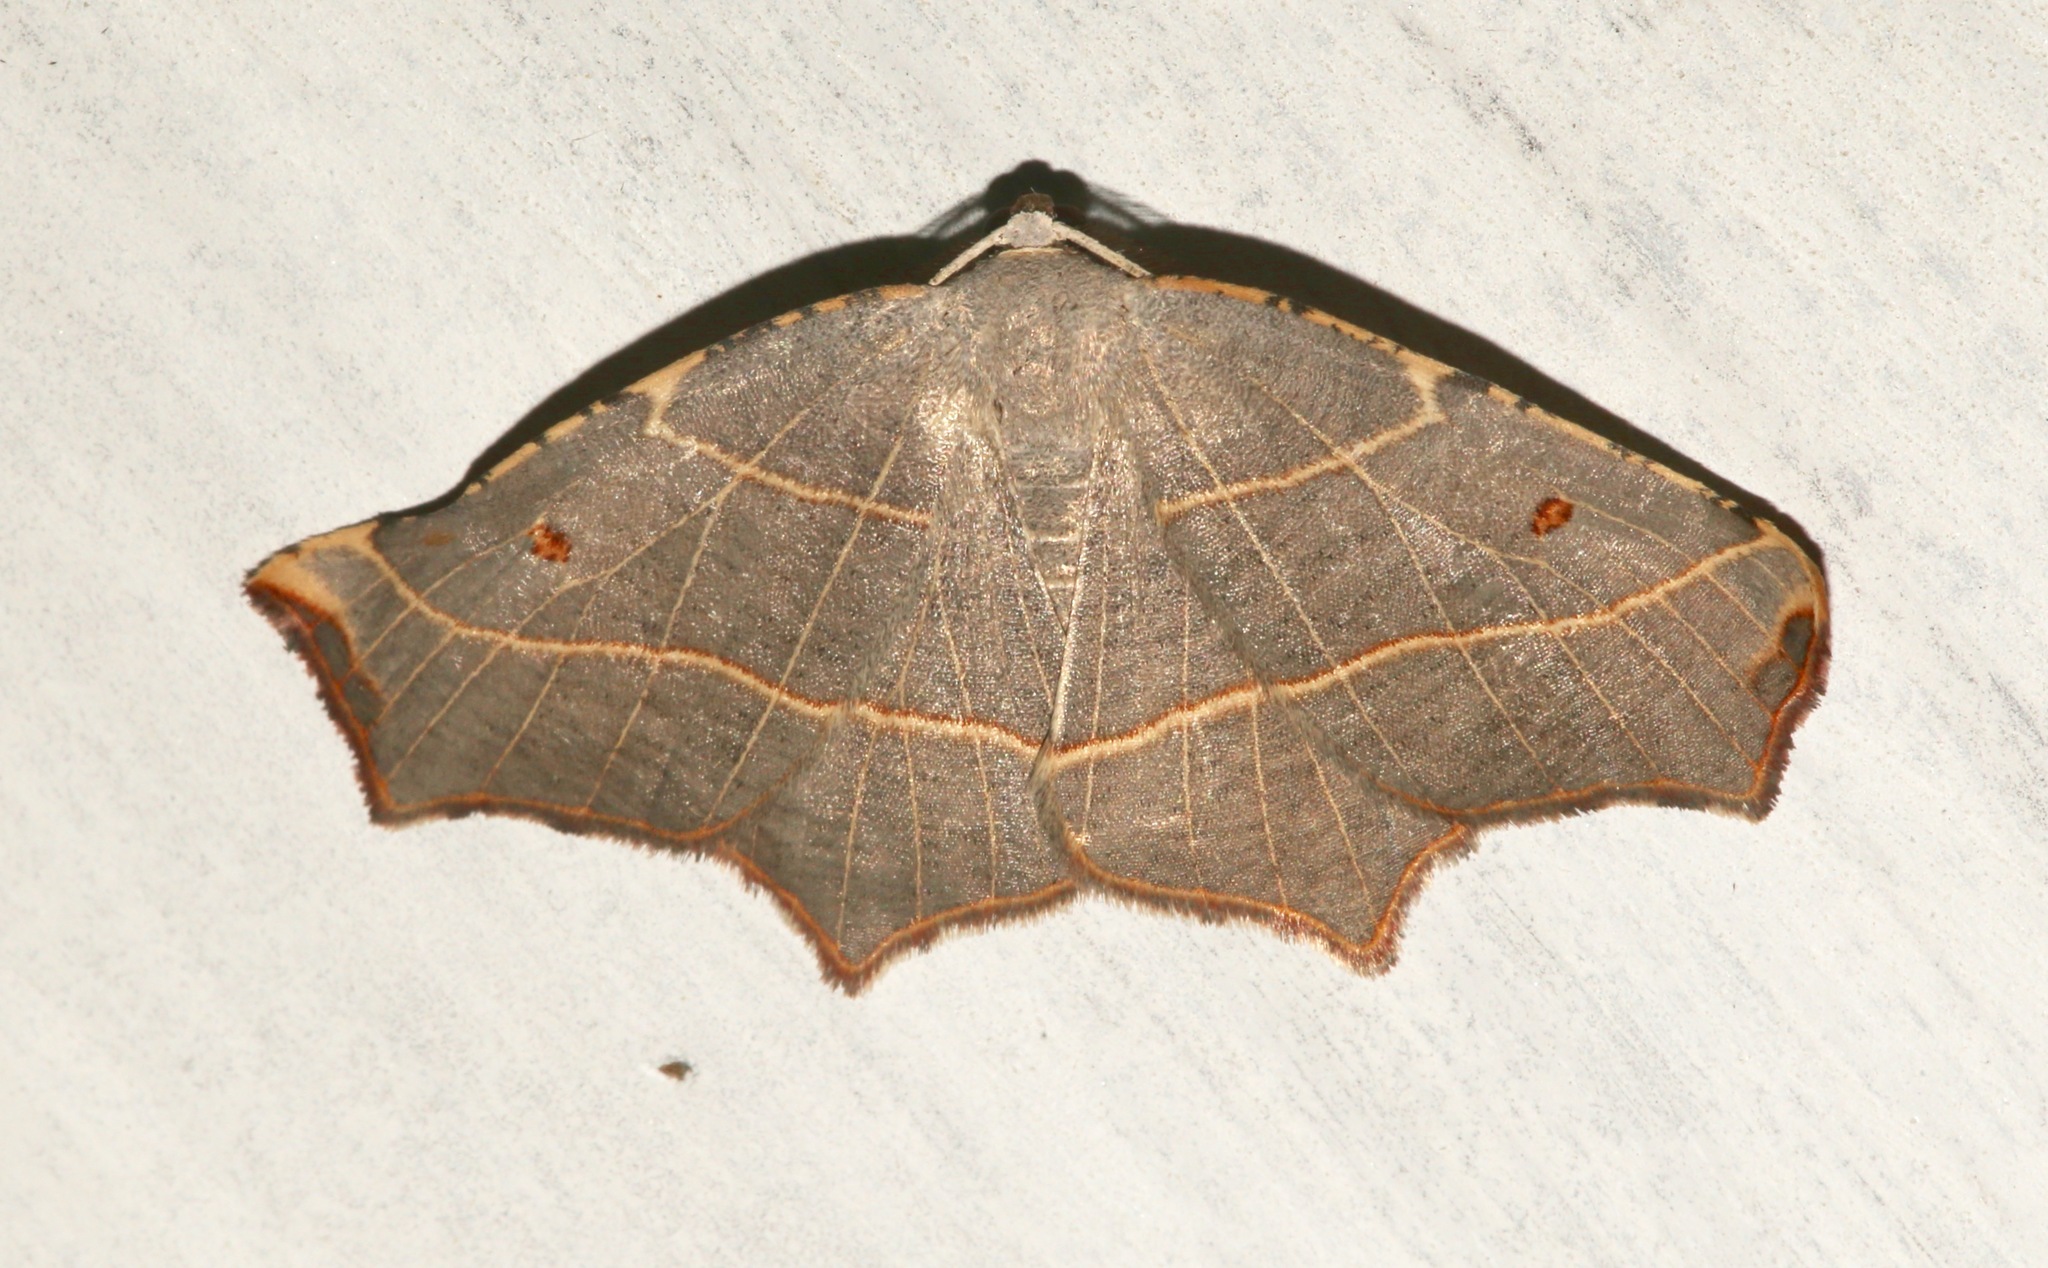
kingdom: Animalia
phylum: Arthropoda
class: Insecta
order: Lepidoptera
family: Geometridae
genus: Metanema
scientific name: Metanema inatomaria
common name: Pale metanema
